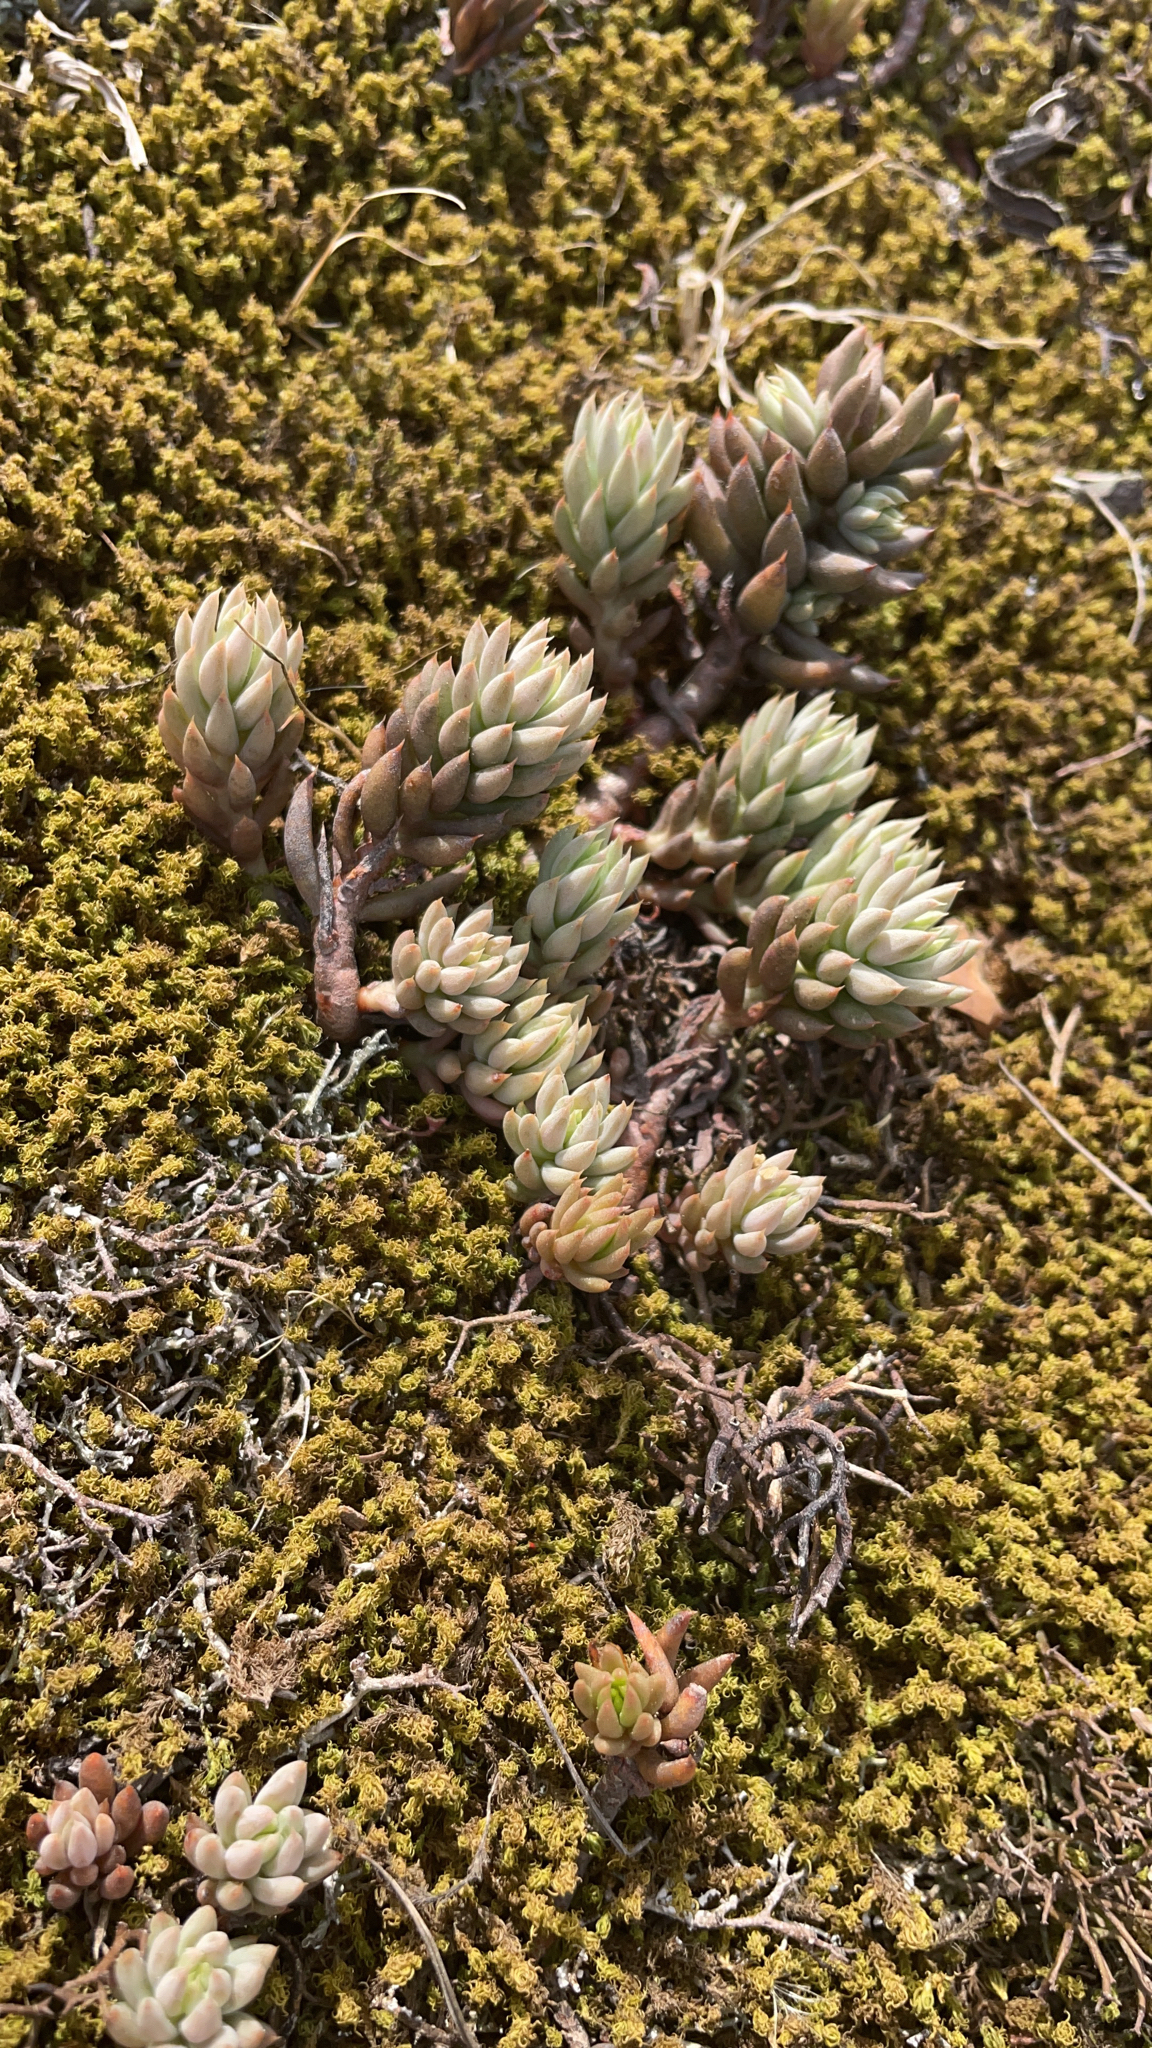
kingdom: Plantae
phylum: Tracheophyta
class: Magnoliopsida
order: Saxifragales
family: Crassulaceae
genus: Petrosedum
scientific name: Petrosedum sediforme
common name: Pale stonecrop
